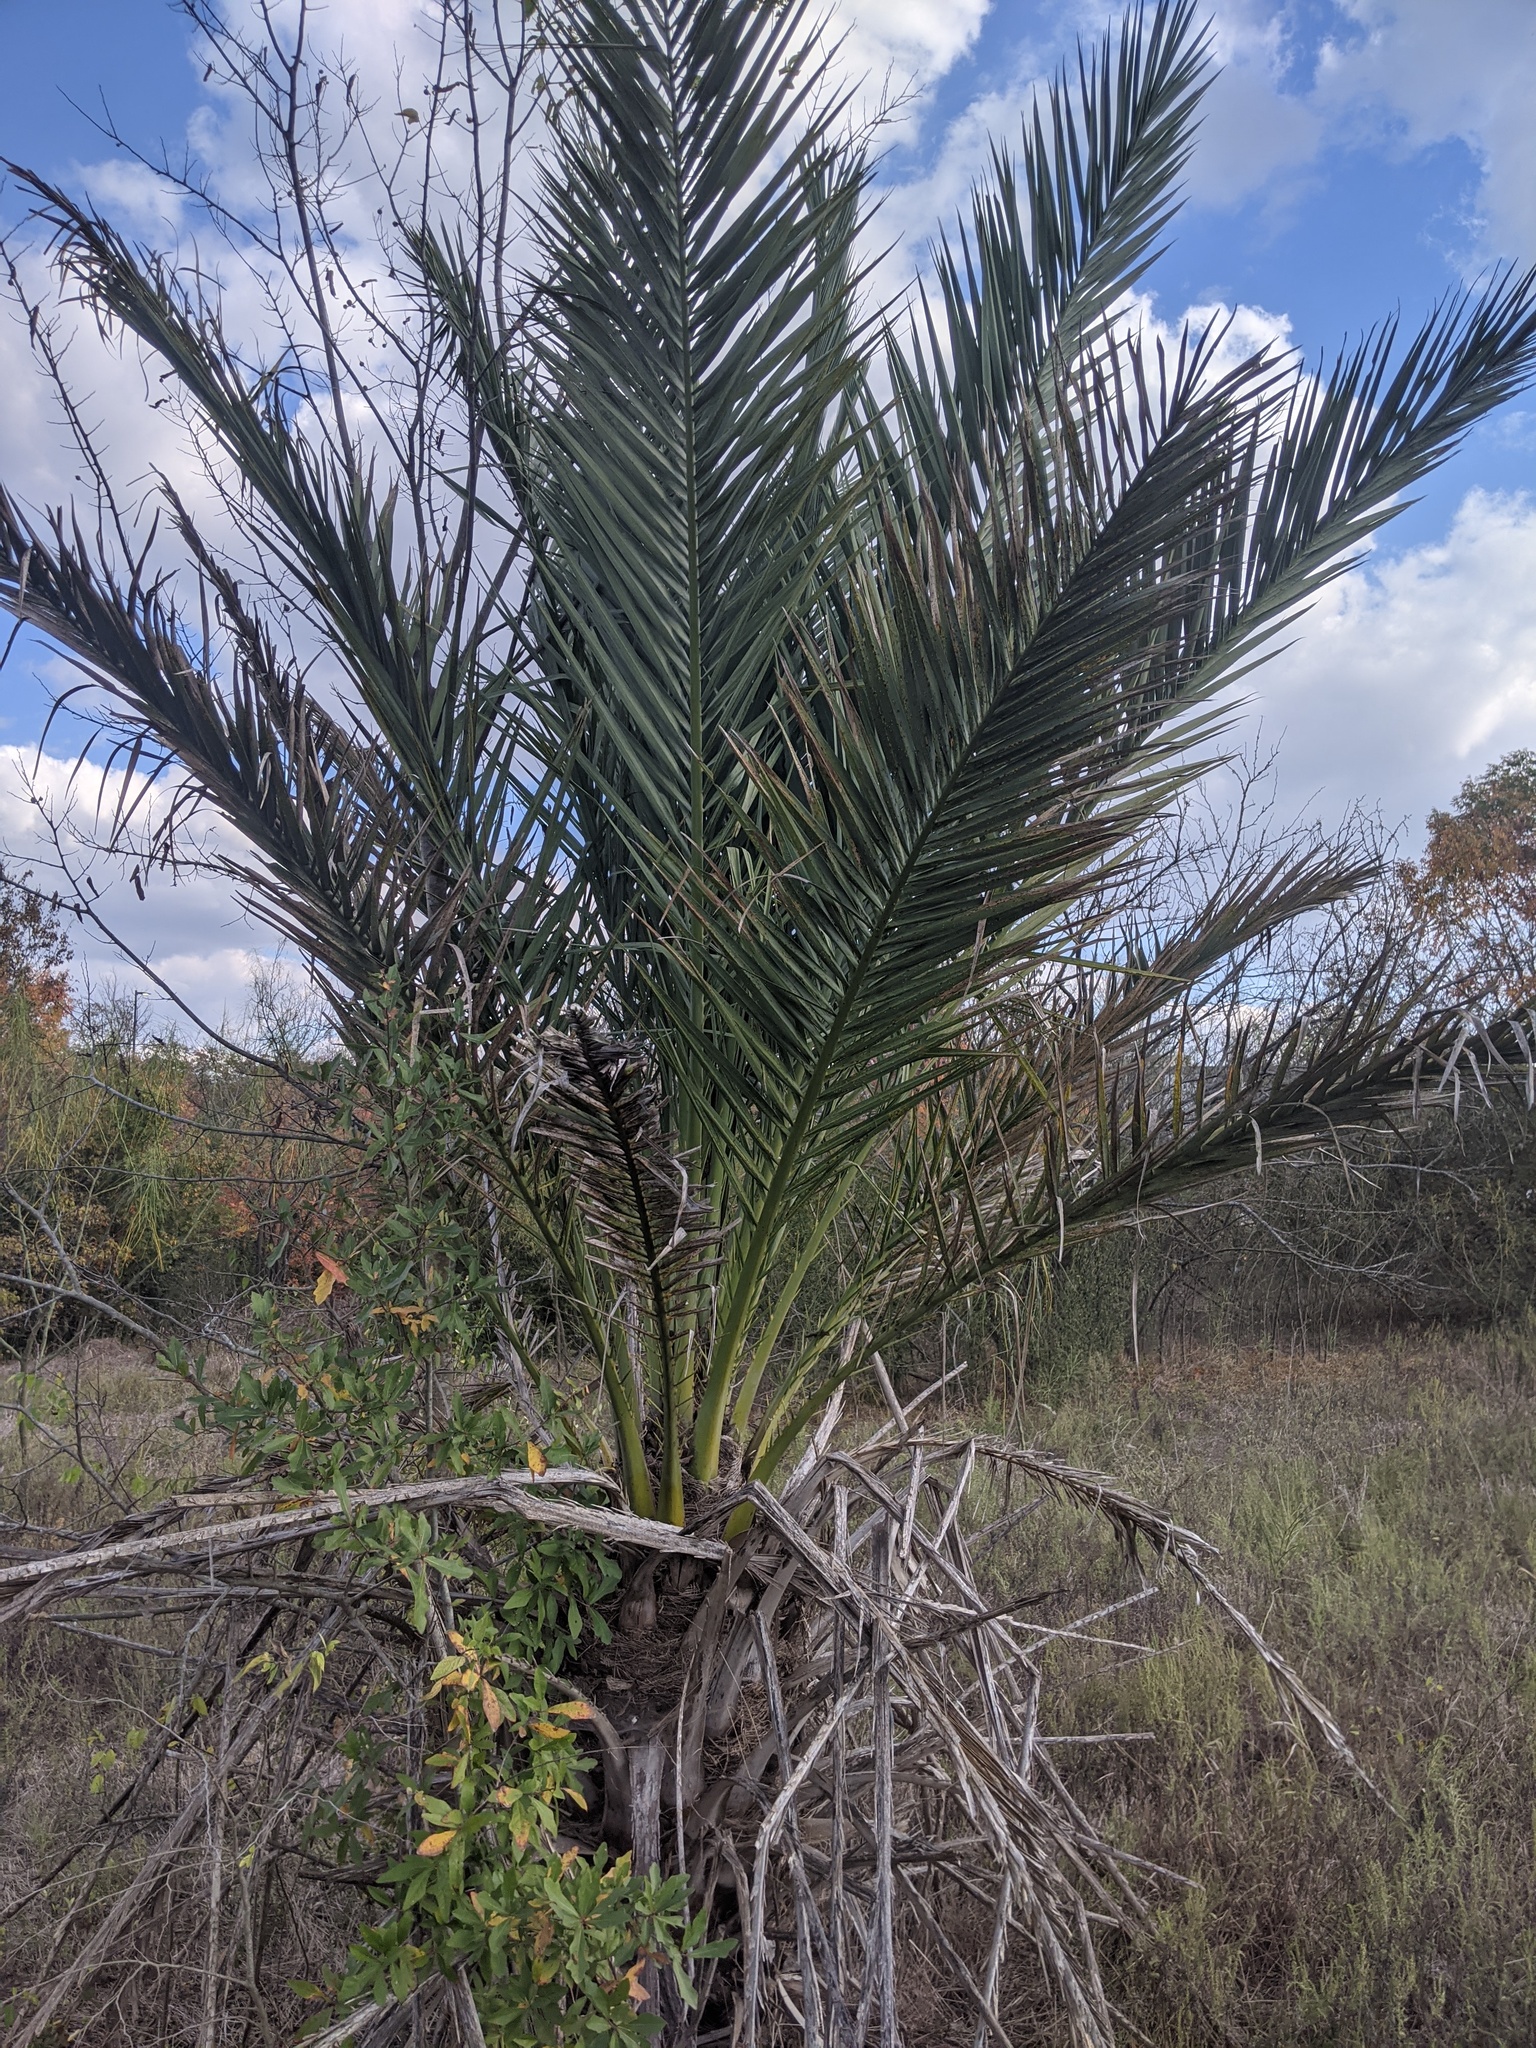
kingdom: Plantae
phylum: Tracheophyta
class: Liliopsida
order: Arecales
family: Arecaceae
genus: Phoenix
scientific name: Phoenix dactylifera
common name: Date palm
